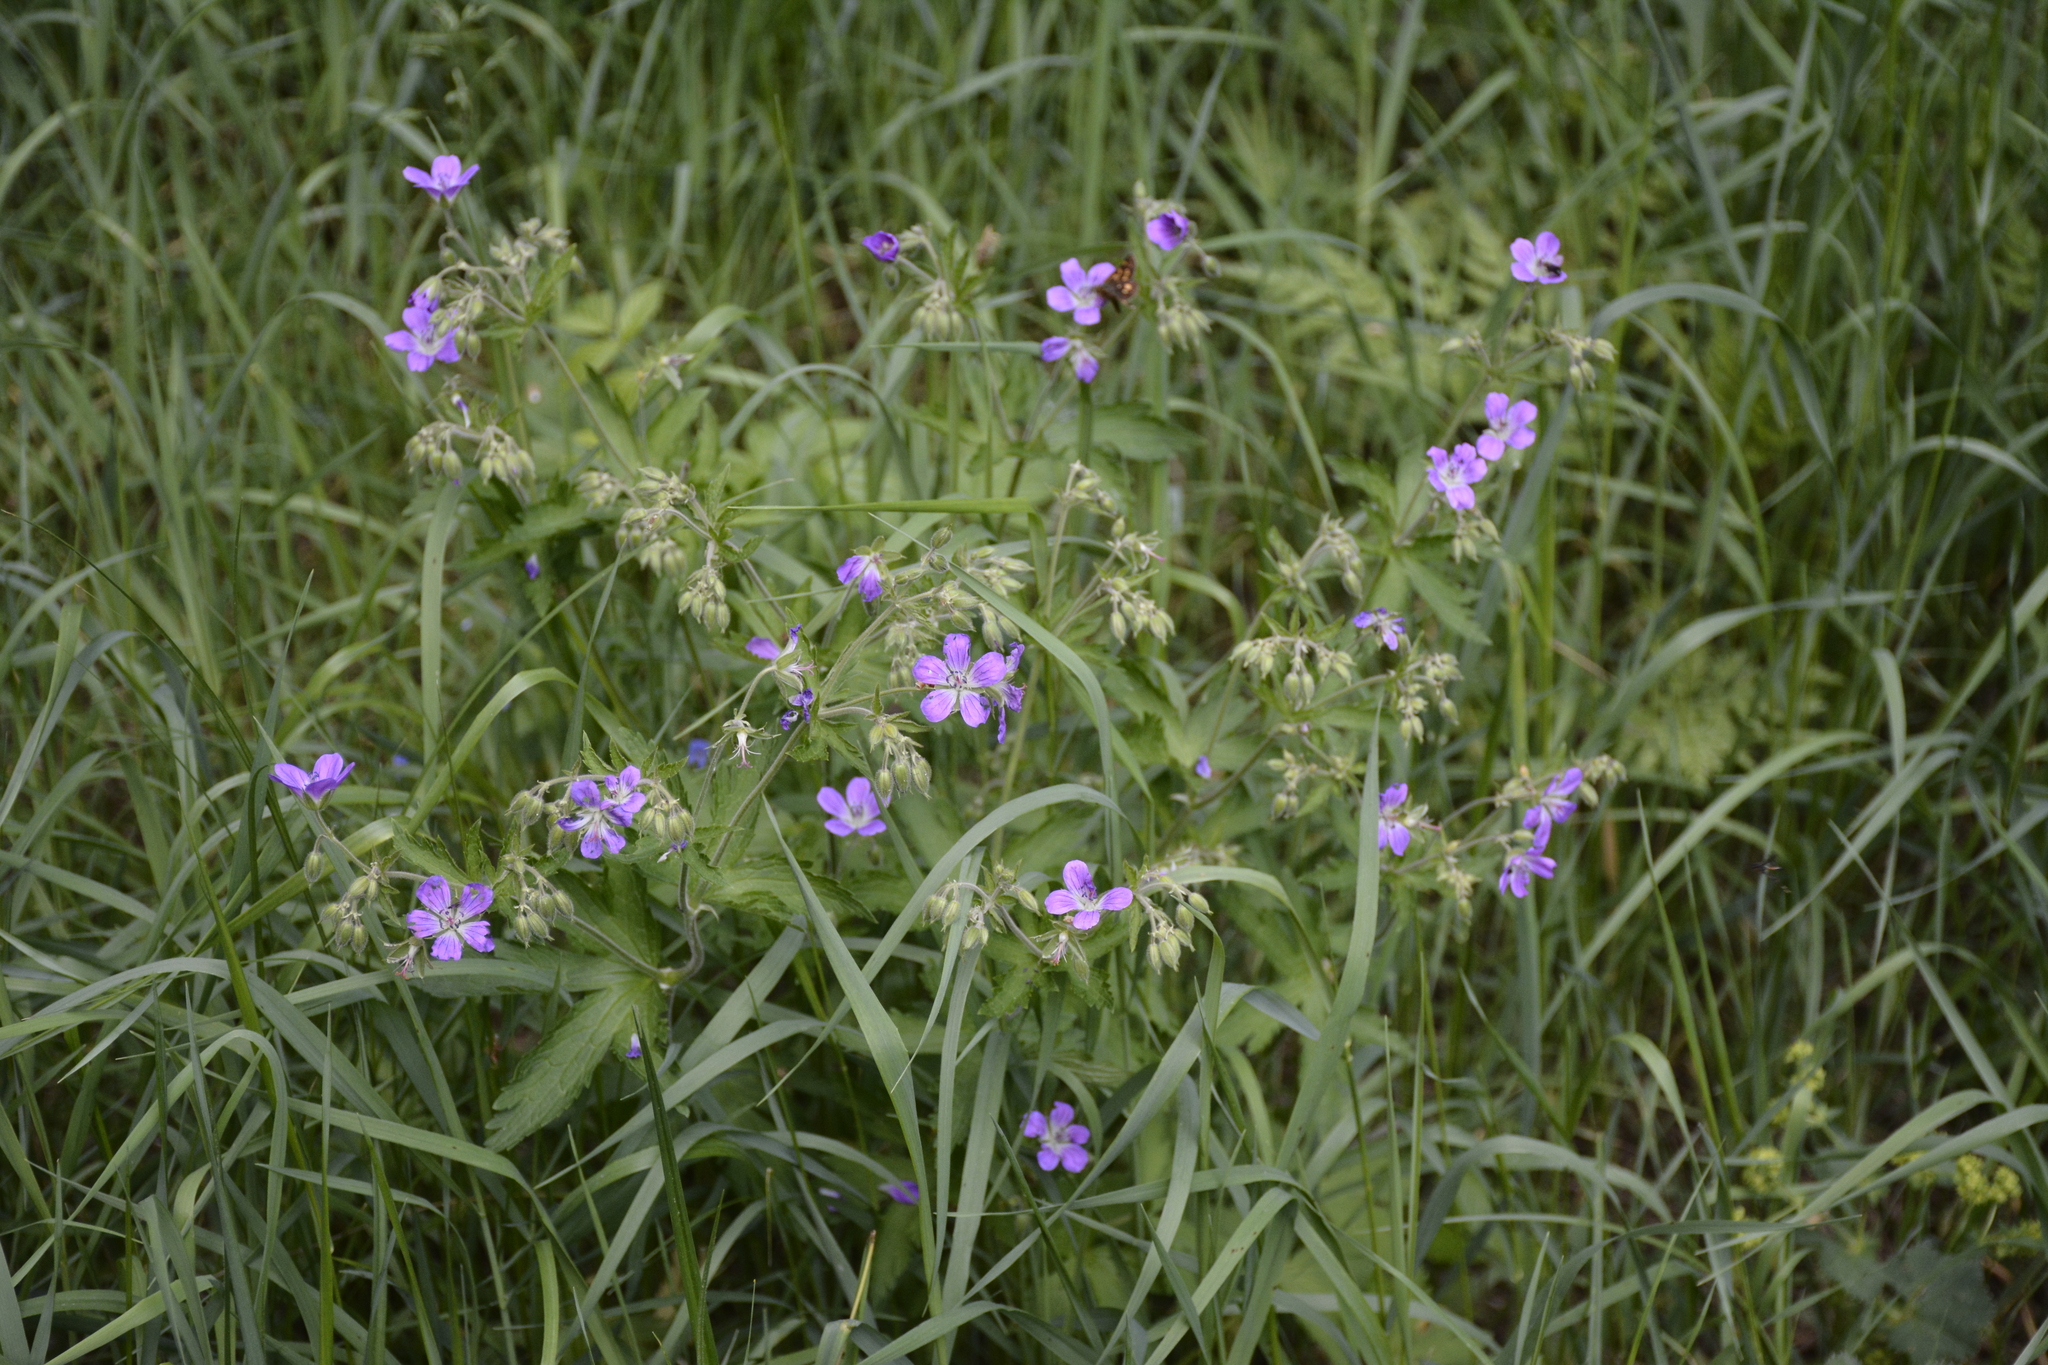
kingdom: Plantae
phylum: Tracheophyta
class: Magnoliopsida
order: Geraniales
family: Geraniaceae
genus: Geranium
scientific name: Geranium sylvaticum
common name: Wood crane's-bill
